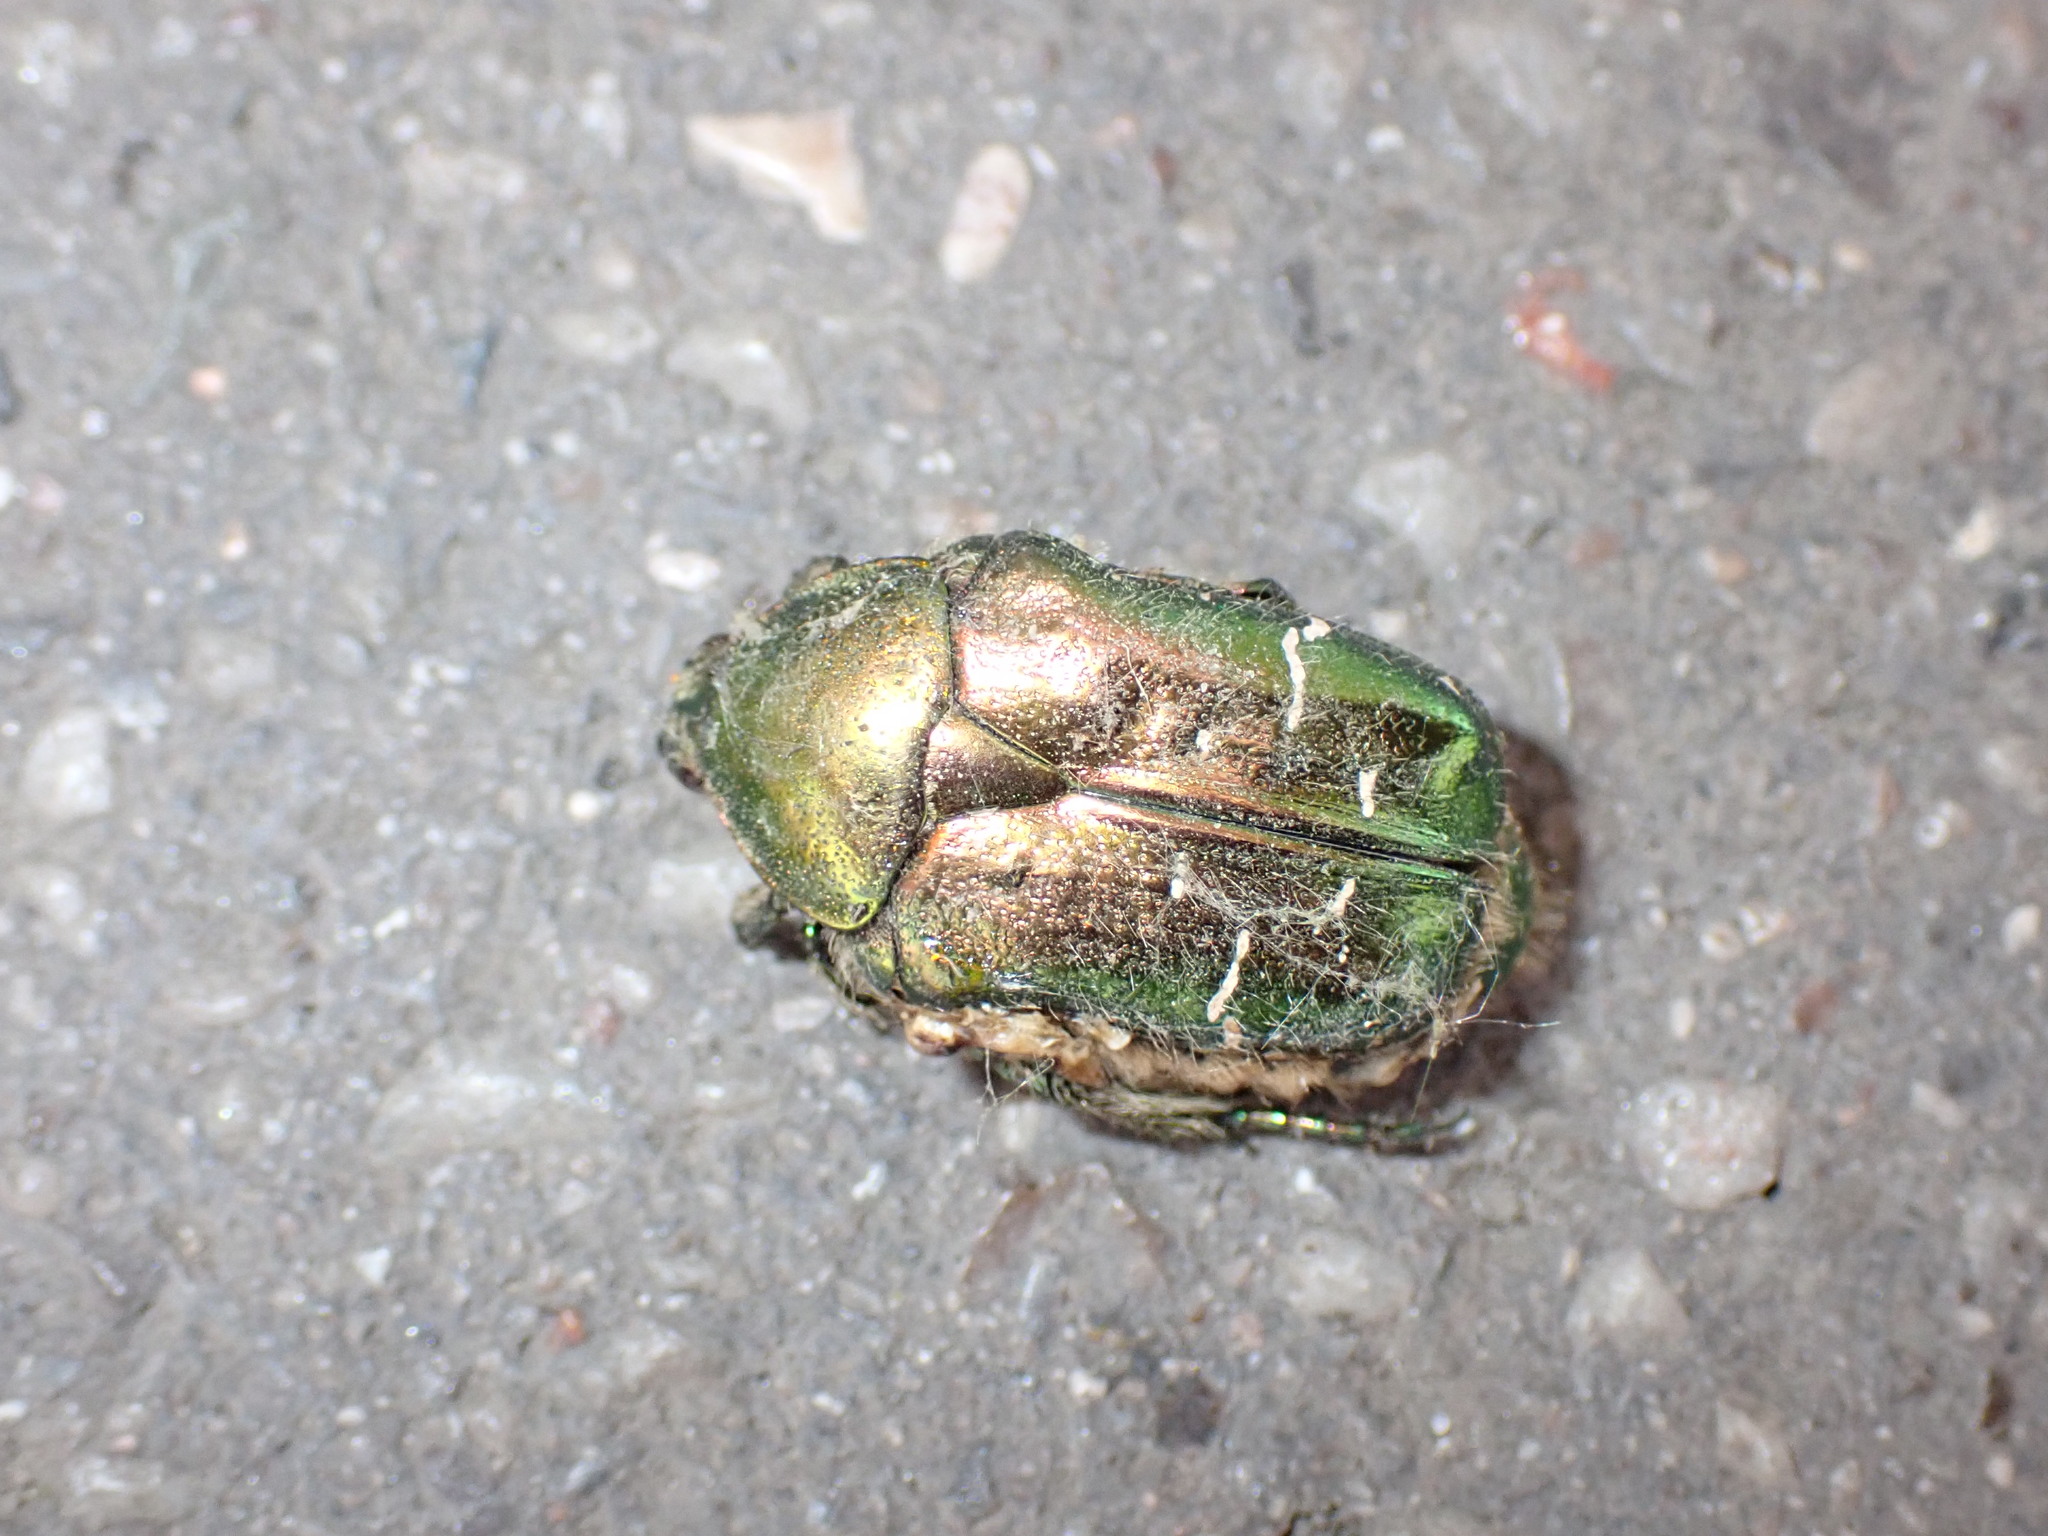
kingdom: Animalia
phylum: Arthropoda
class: Insecta
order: Coleoptera
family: Scarabaeidae
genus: Cetonia
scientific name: Cetonia aurata
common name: Rose chafer
